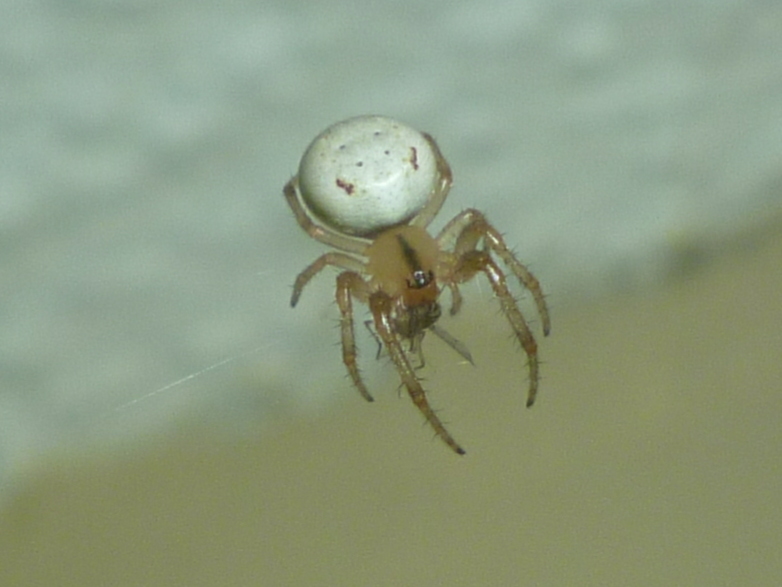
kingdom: Animalia
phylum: Arthropoda
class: Arachnida
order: Araneae
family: Araneidae
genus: Metazygia
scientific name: Metazygia zilloides
